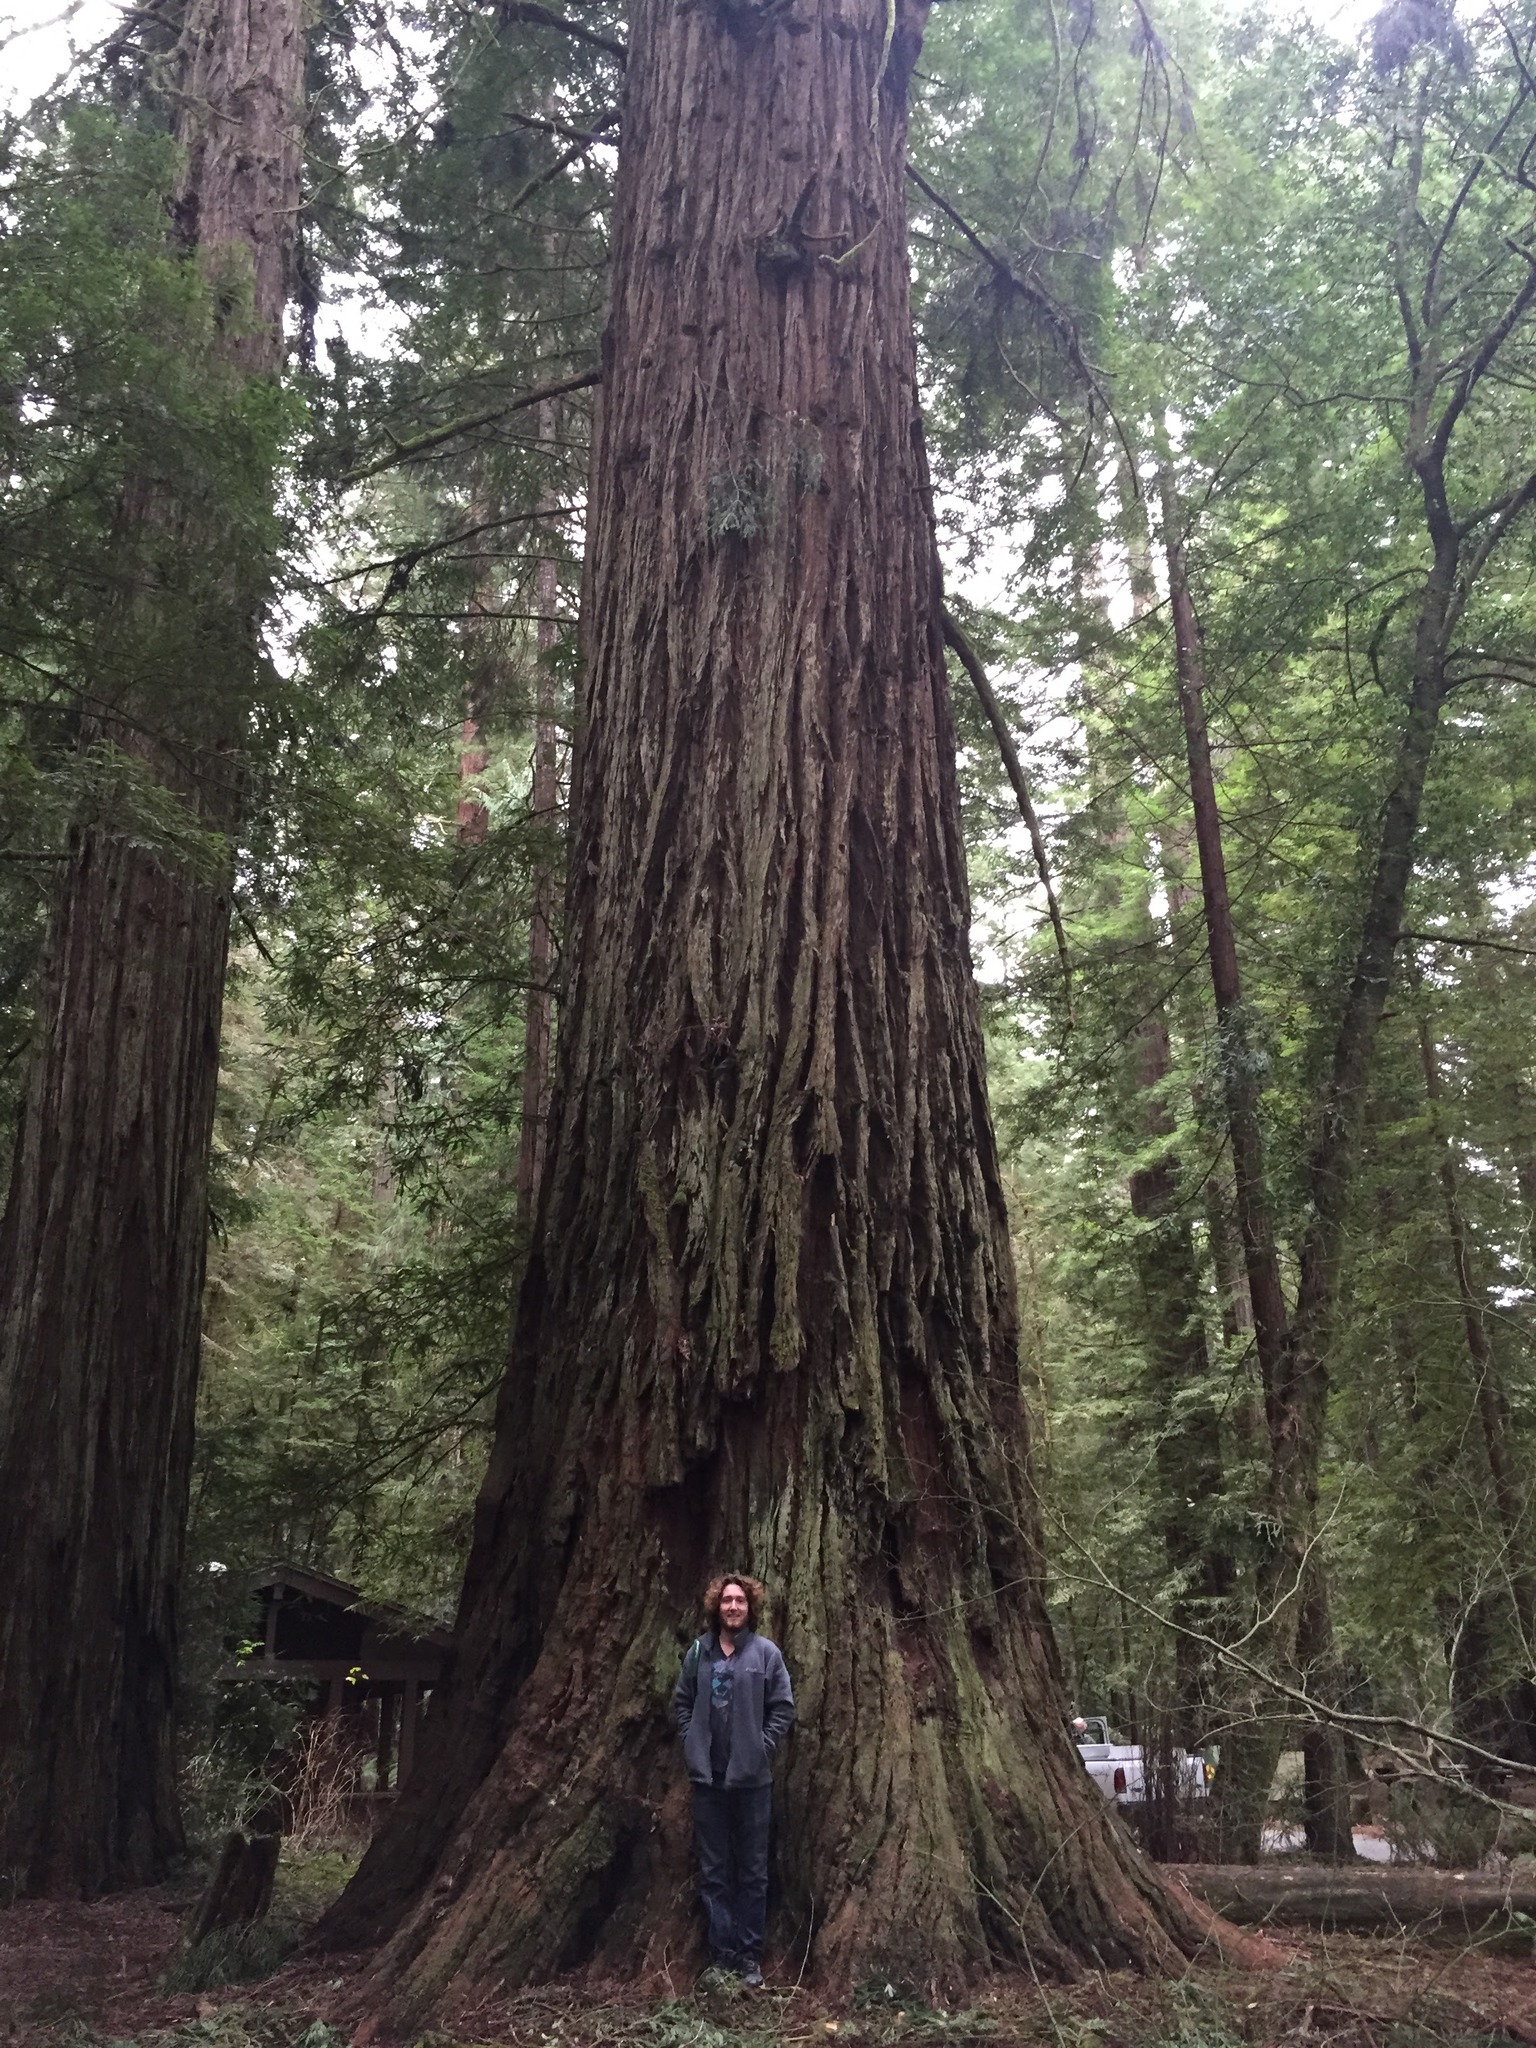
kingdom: Plantae
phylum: Tracheophyta
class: Pinopsida
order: Pinales
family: Cupressaceae
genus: Sequoia
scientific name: Sequoia sempervirens
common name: Coast redwood
